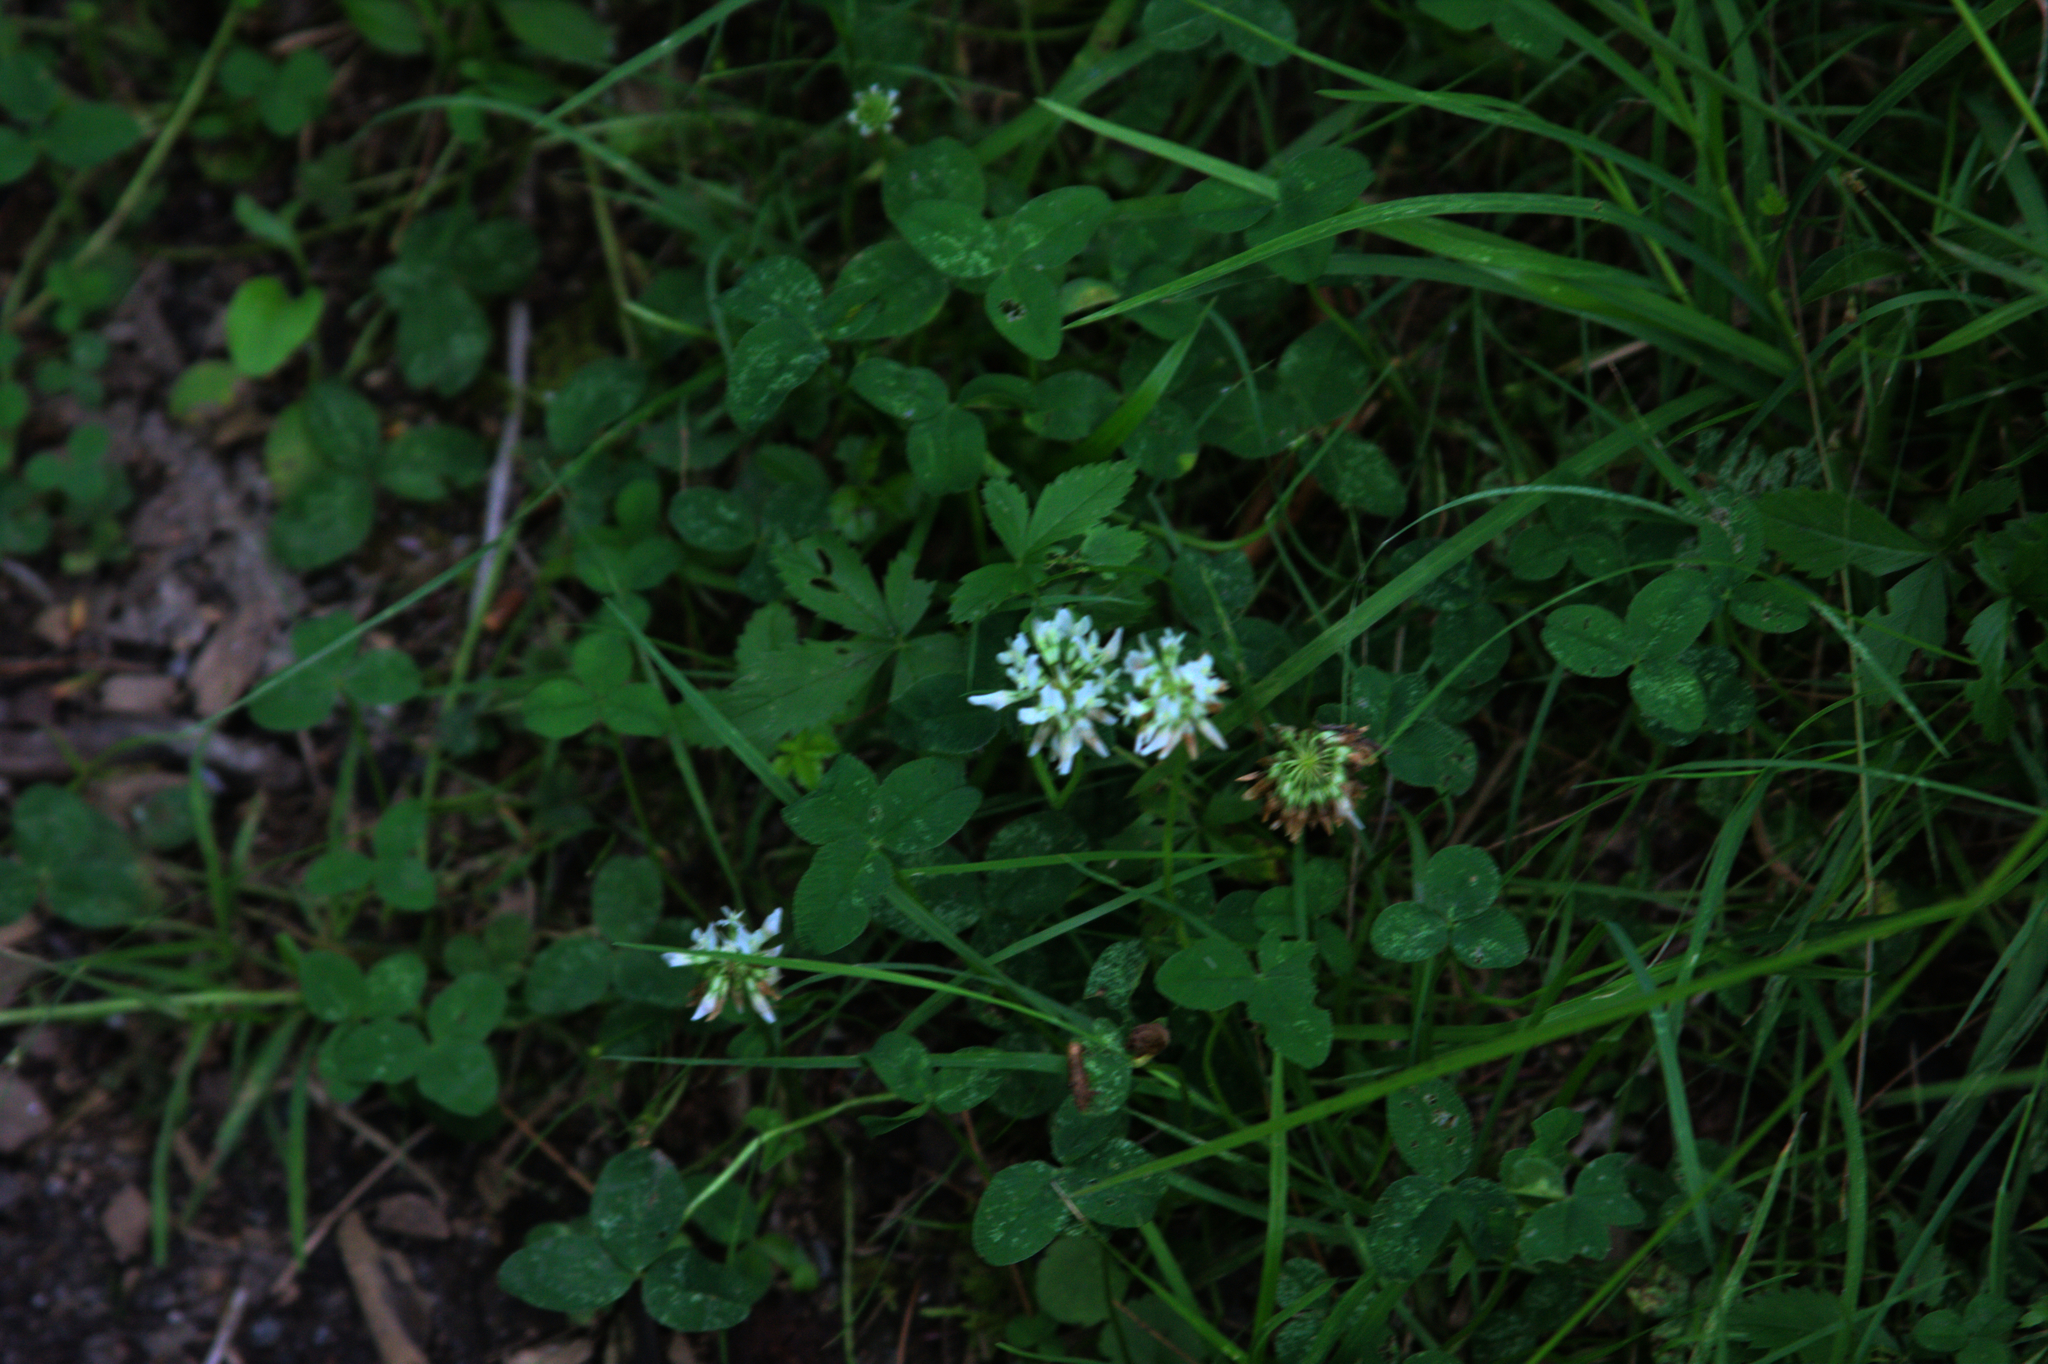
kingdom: Plantae
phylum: Tracheophyta
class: Magnoliopsida
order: Fabales
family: Fabaceae
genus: Trifolium
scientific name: Trifolium repens
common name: White clover
